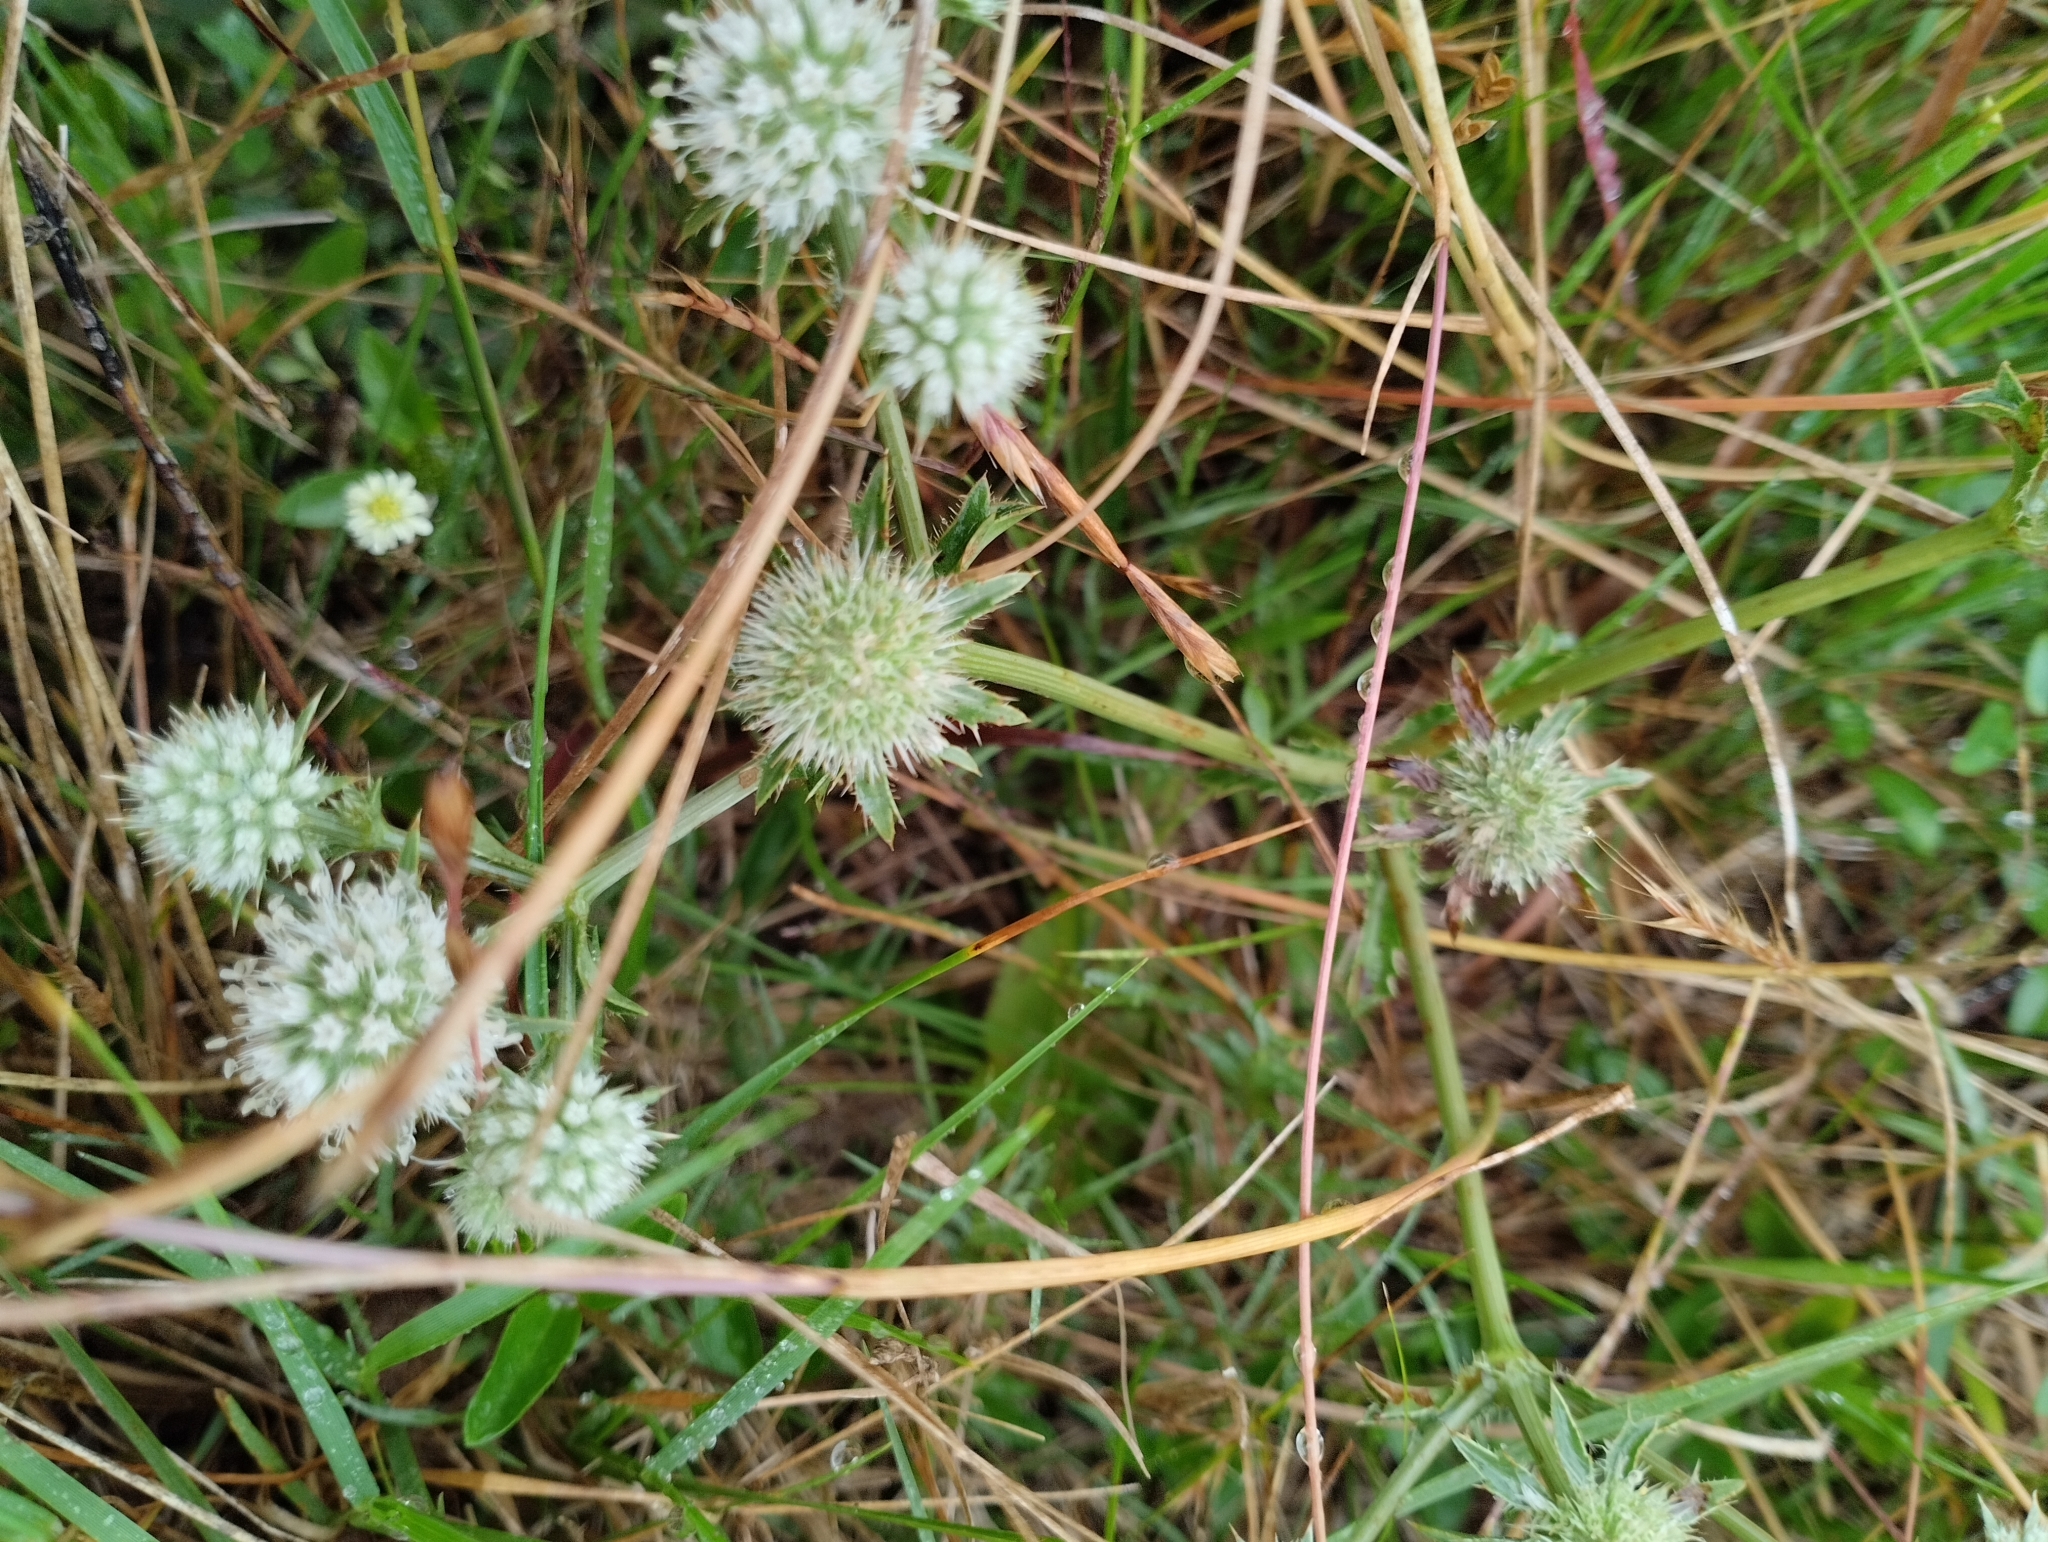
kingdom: Plantae
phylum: Tracheophyta
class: Magnoliopsida
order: Apiales
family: Apiaceae
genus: Eryngium
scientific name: Eryngium nudicaule
